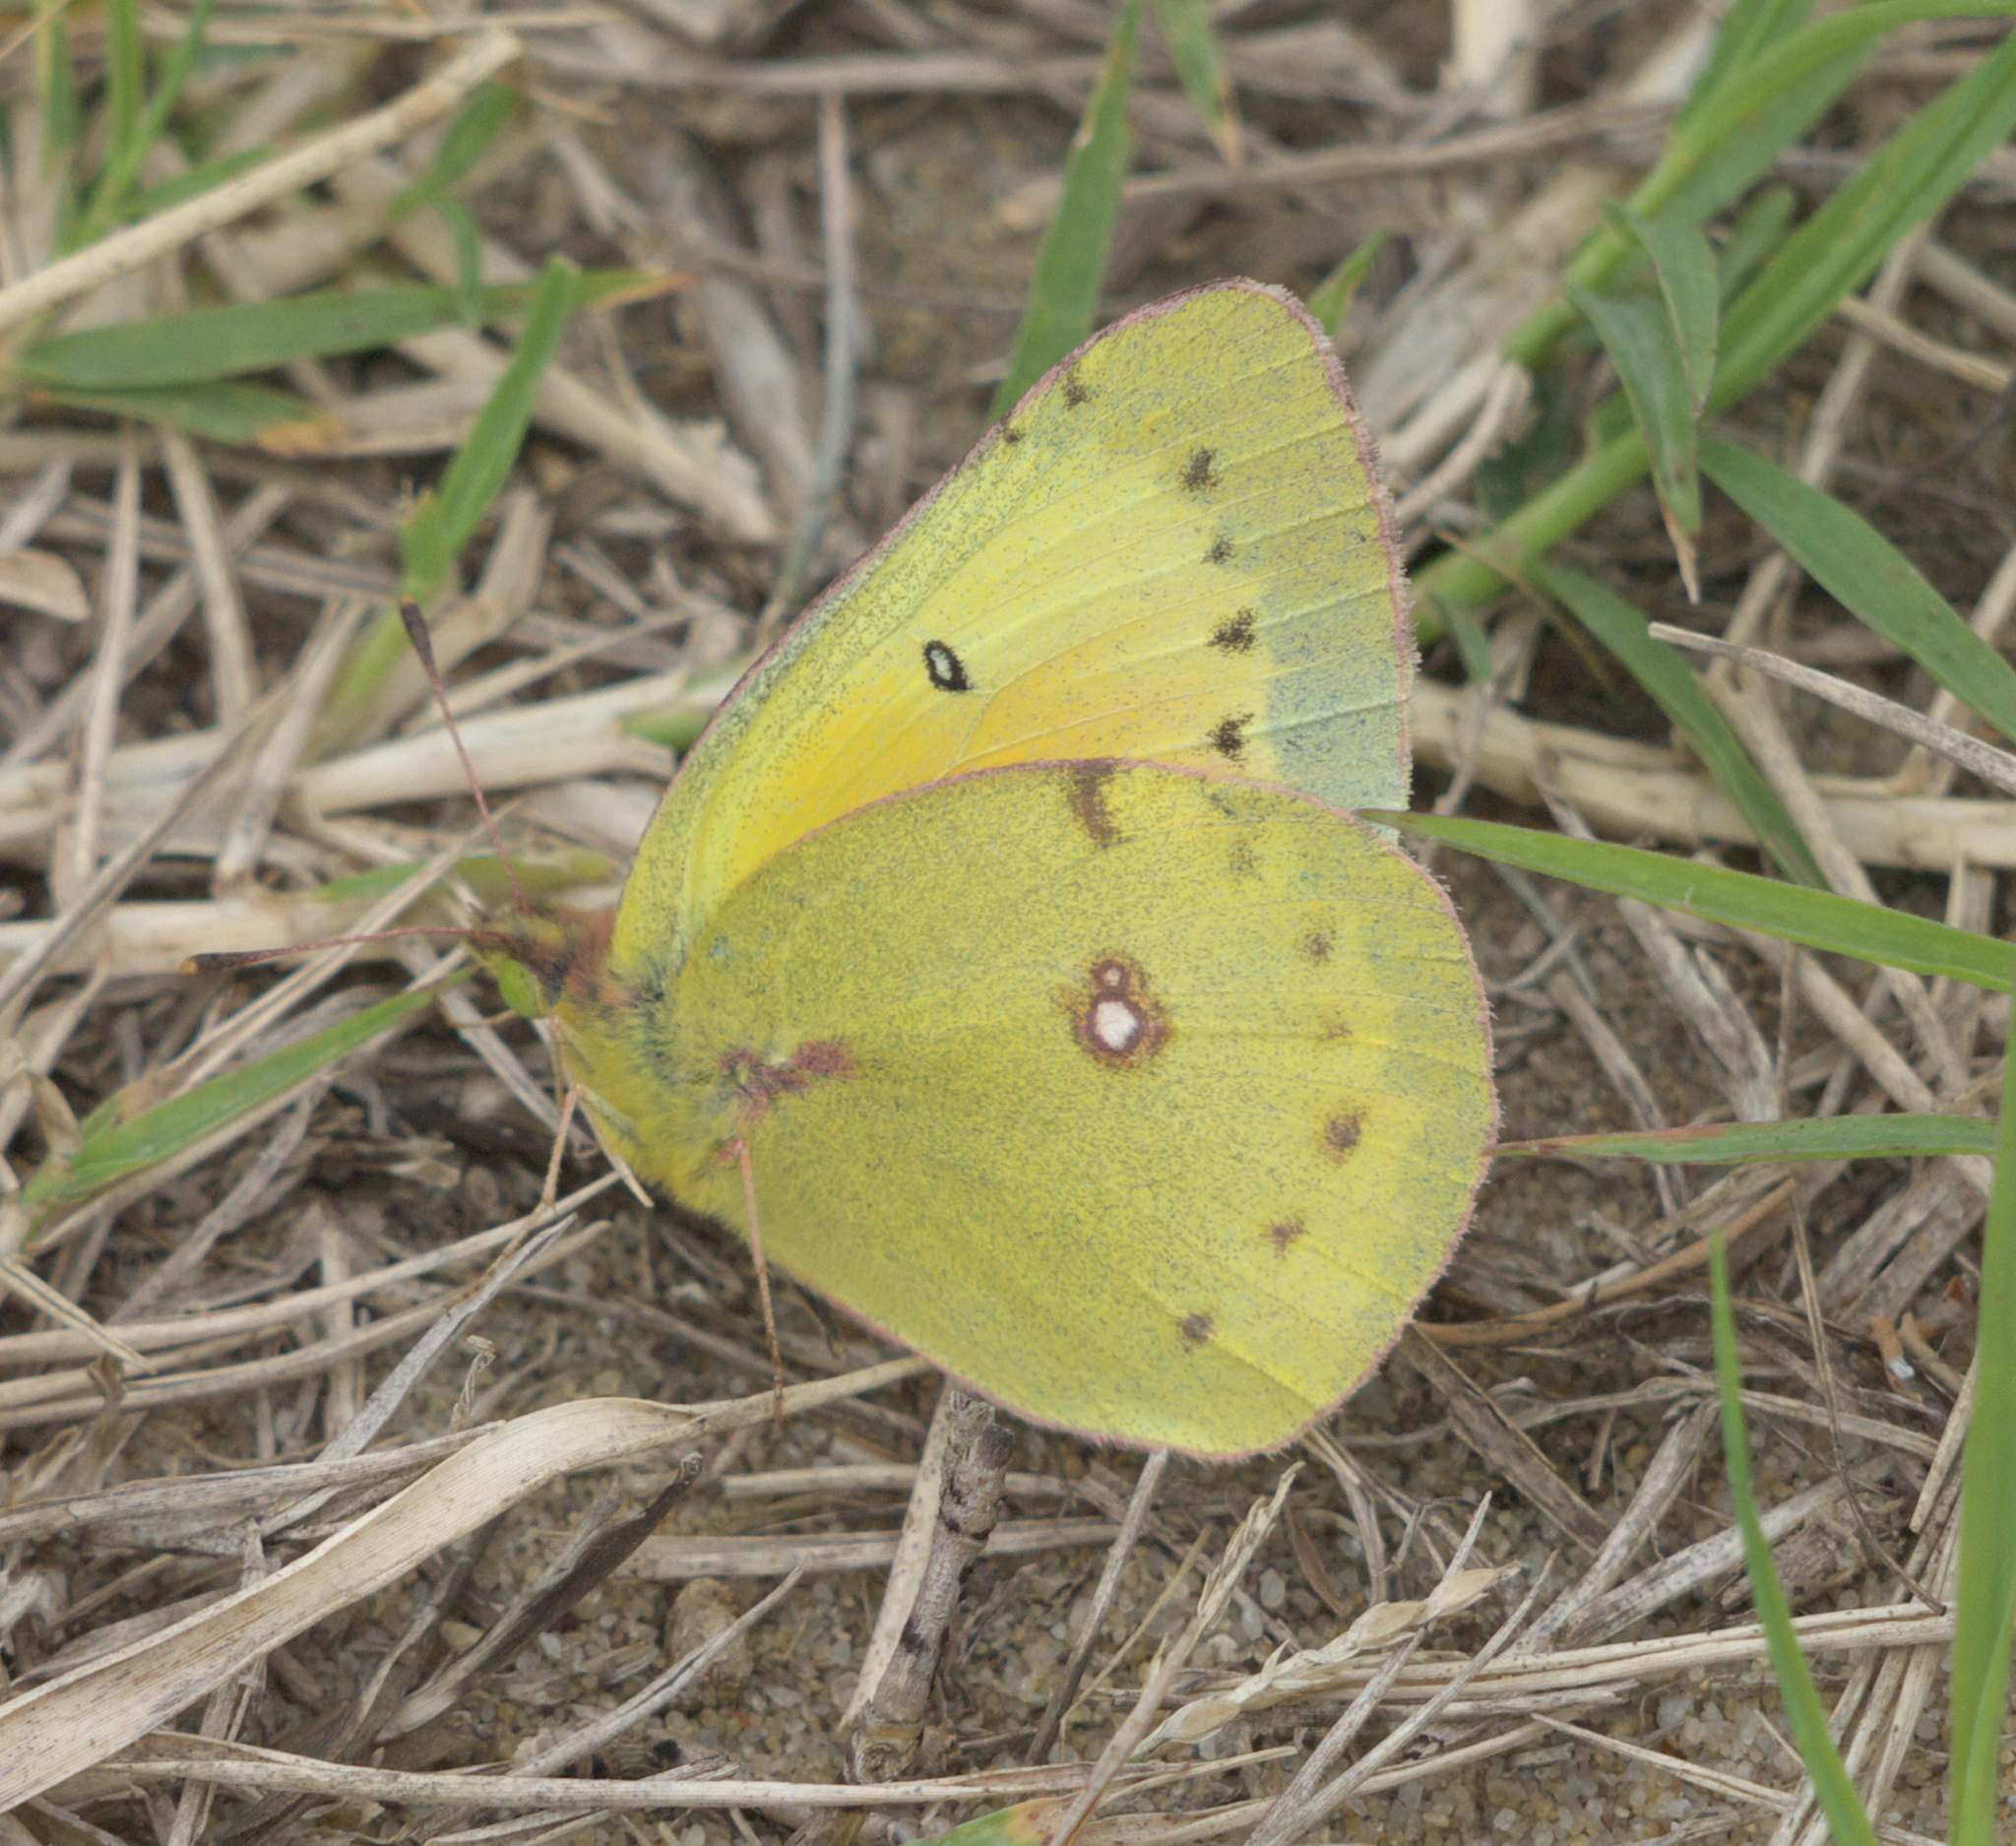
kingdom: Animalia
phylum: Arthropoda
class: Insecta
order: Lepidoptera
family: Pieridae
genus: Colias
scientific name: Colias eurytheme
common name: Alfalfa butterfly
